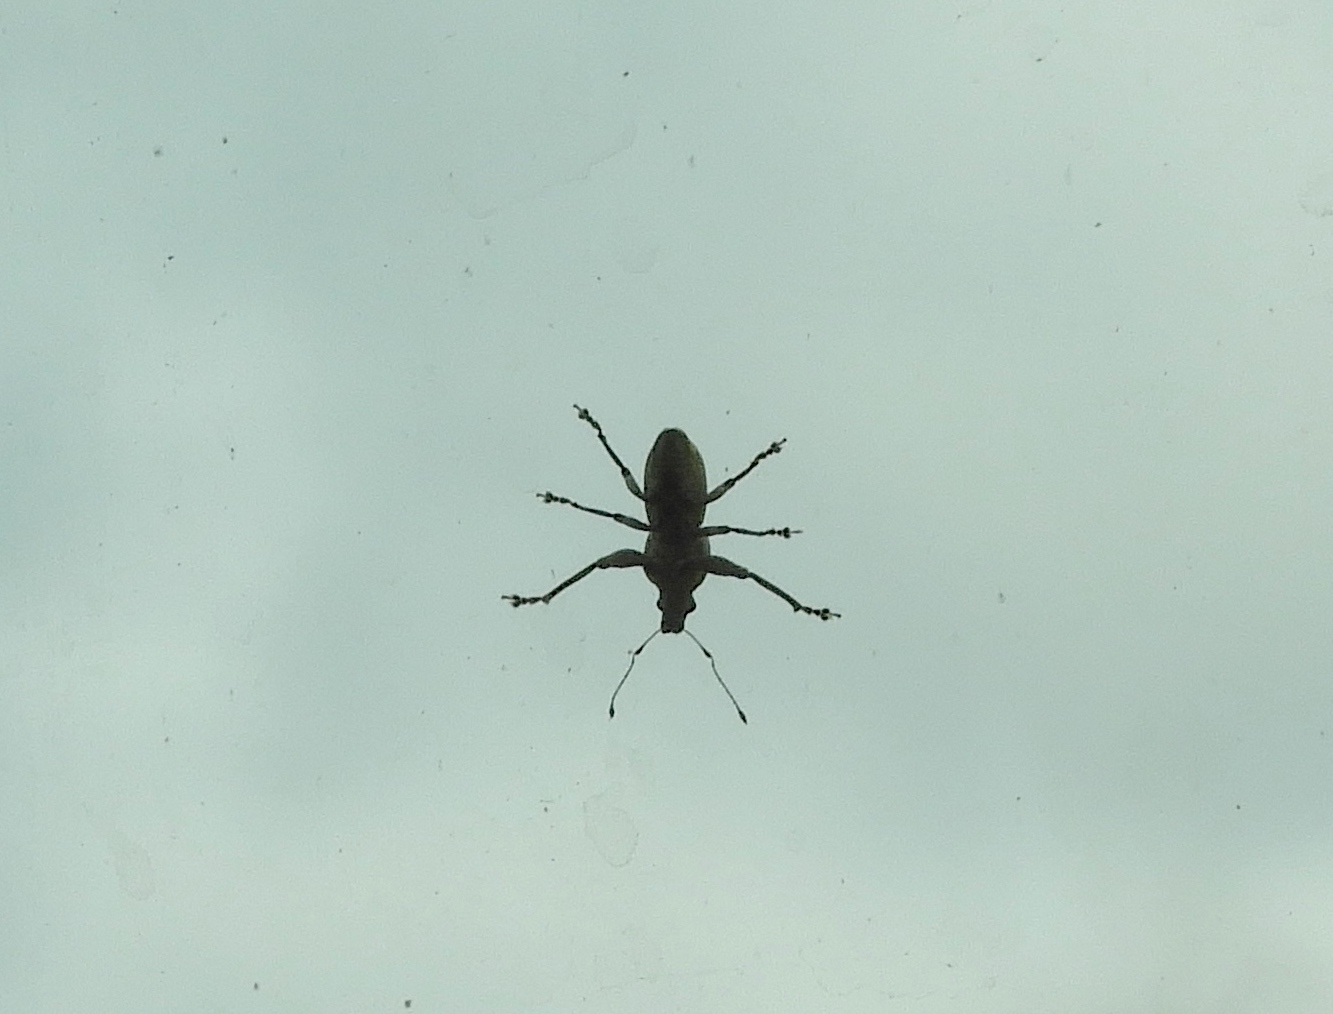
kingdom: Animalia
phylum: Arthropoda
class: Insecta
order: Coleoptera
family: Curculionidae
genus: Pantomorus
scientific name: Pantomorus
